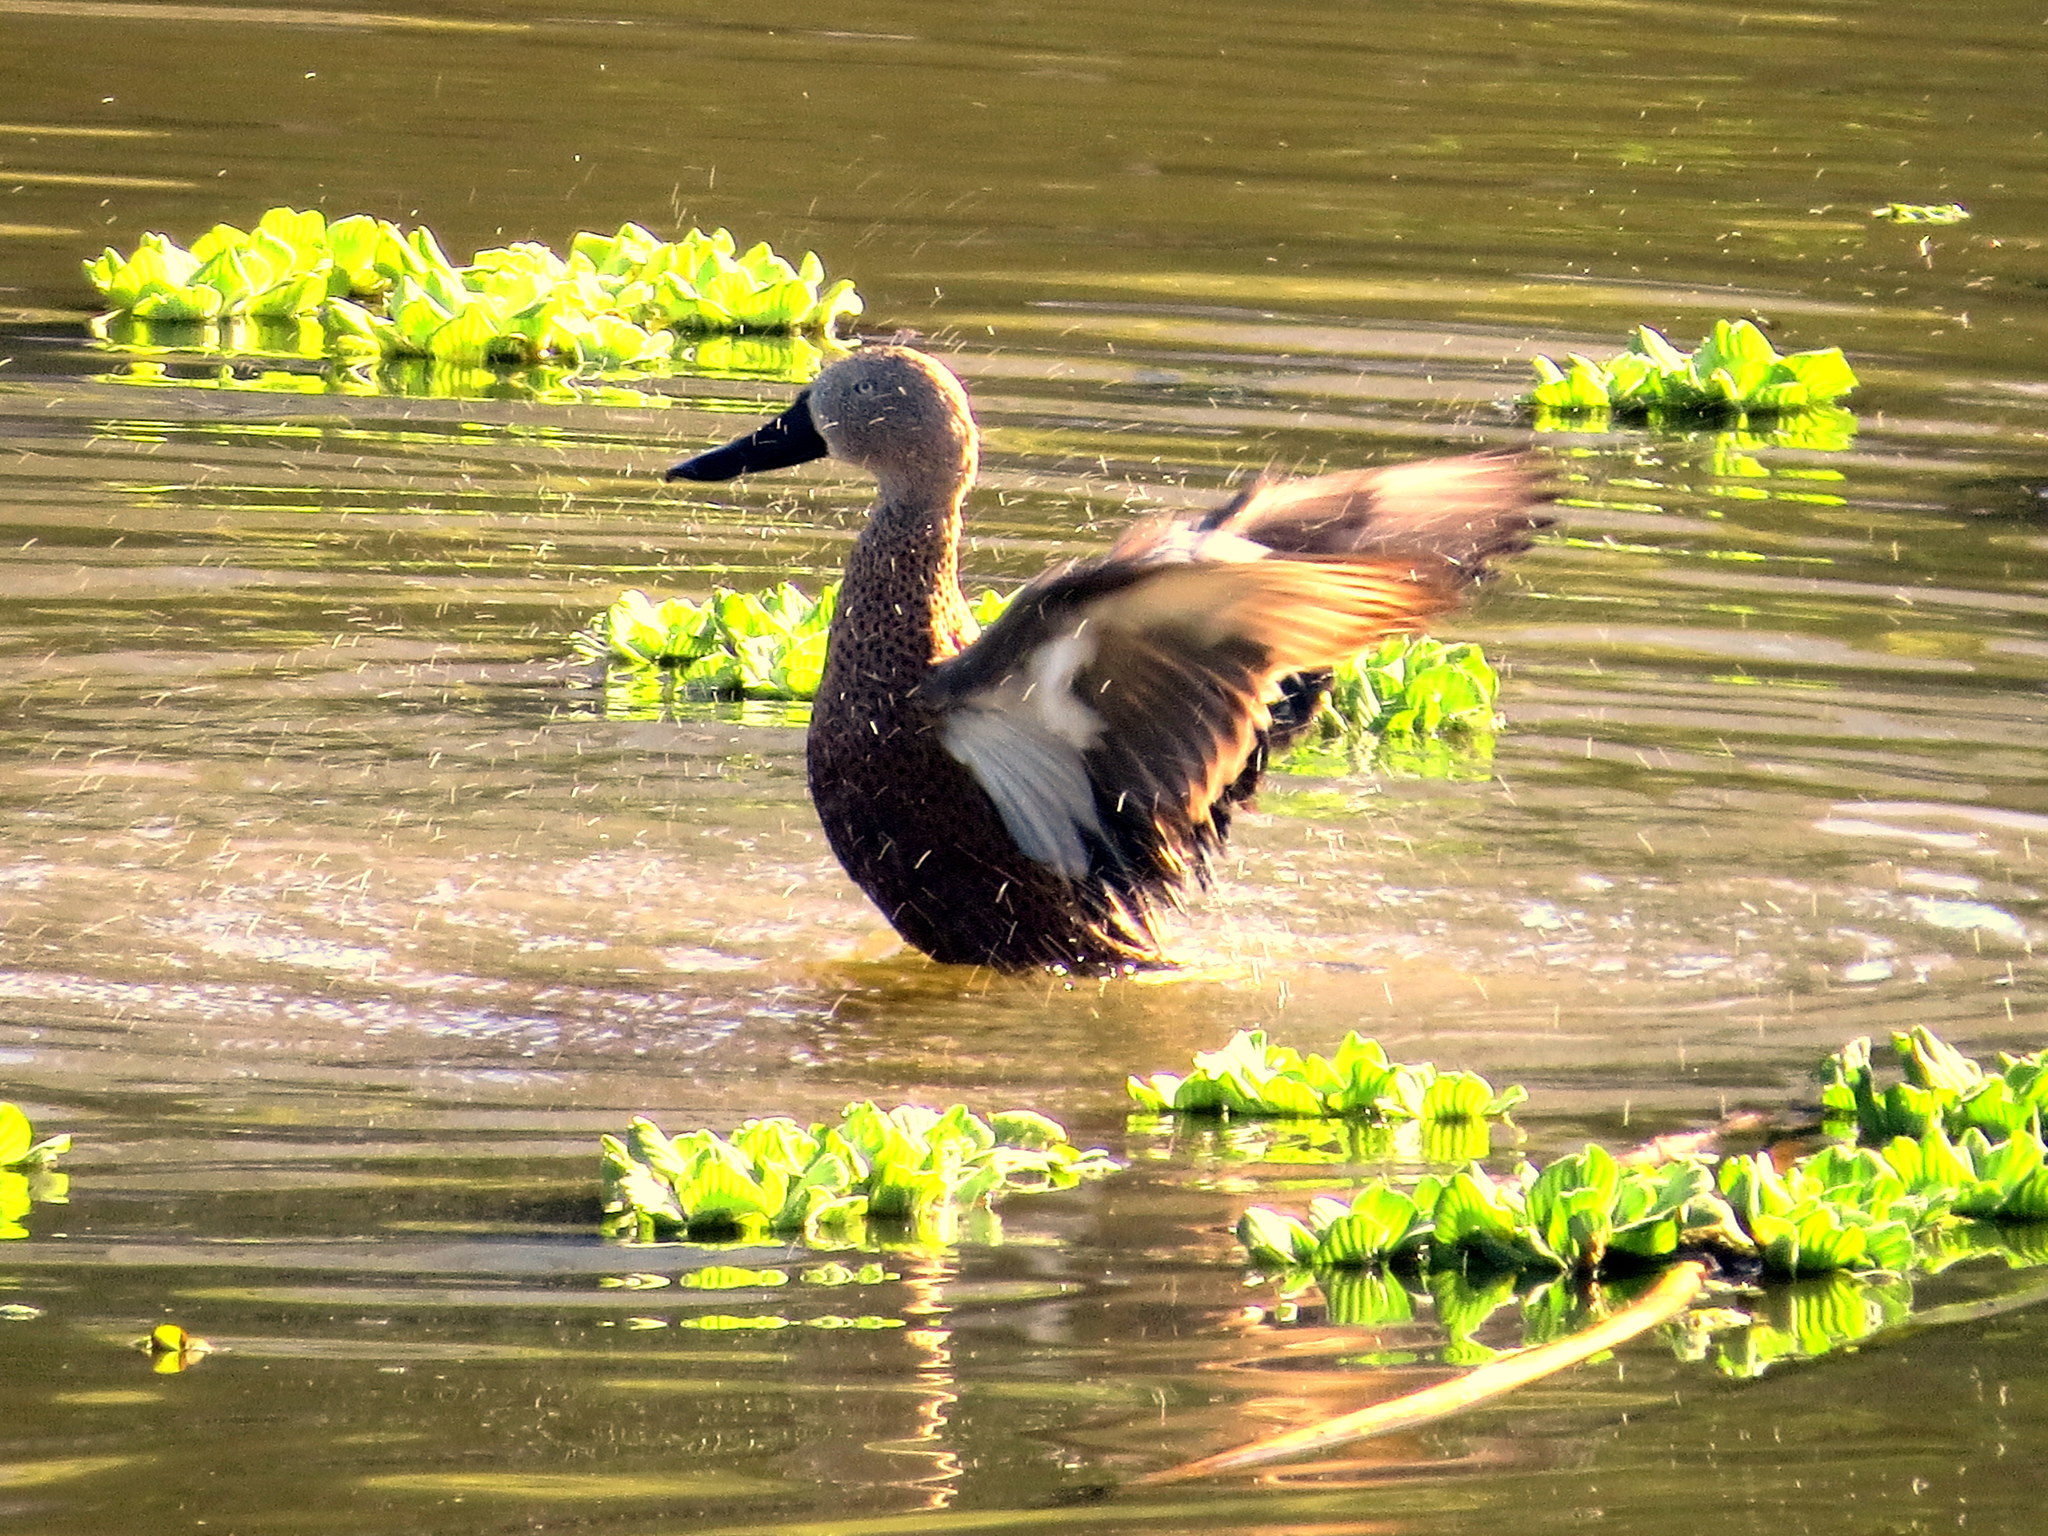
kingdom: Animalia
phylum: Chordata
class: Aves
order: Anseriformes
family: Anatidae
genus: Spatula
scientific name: Spatula platalea
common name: Red shoveler
